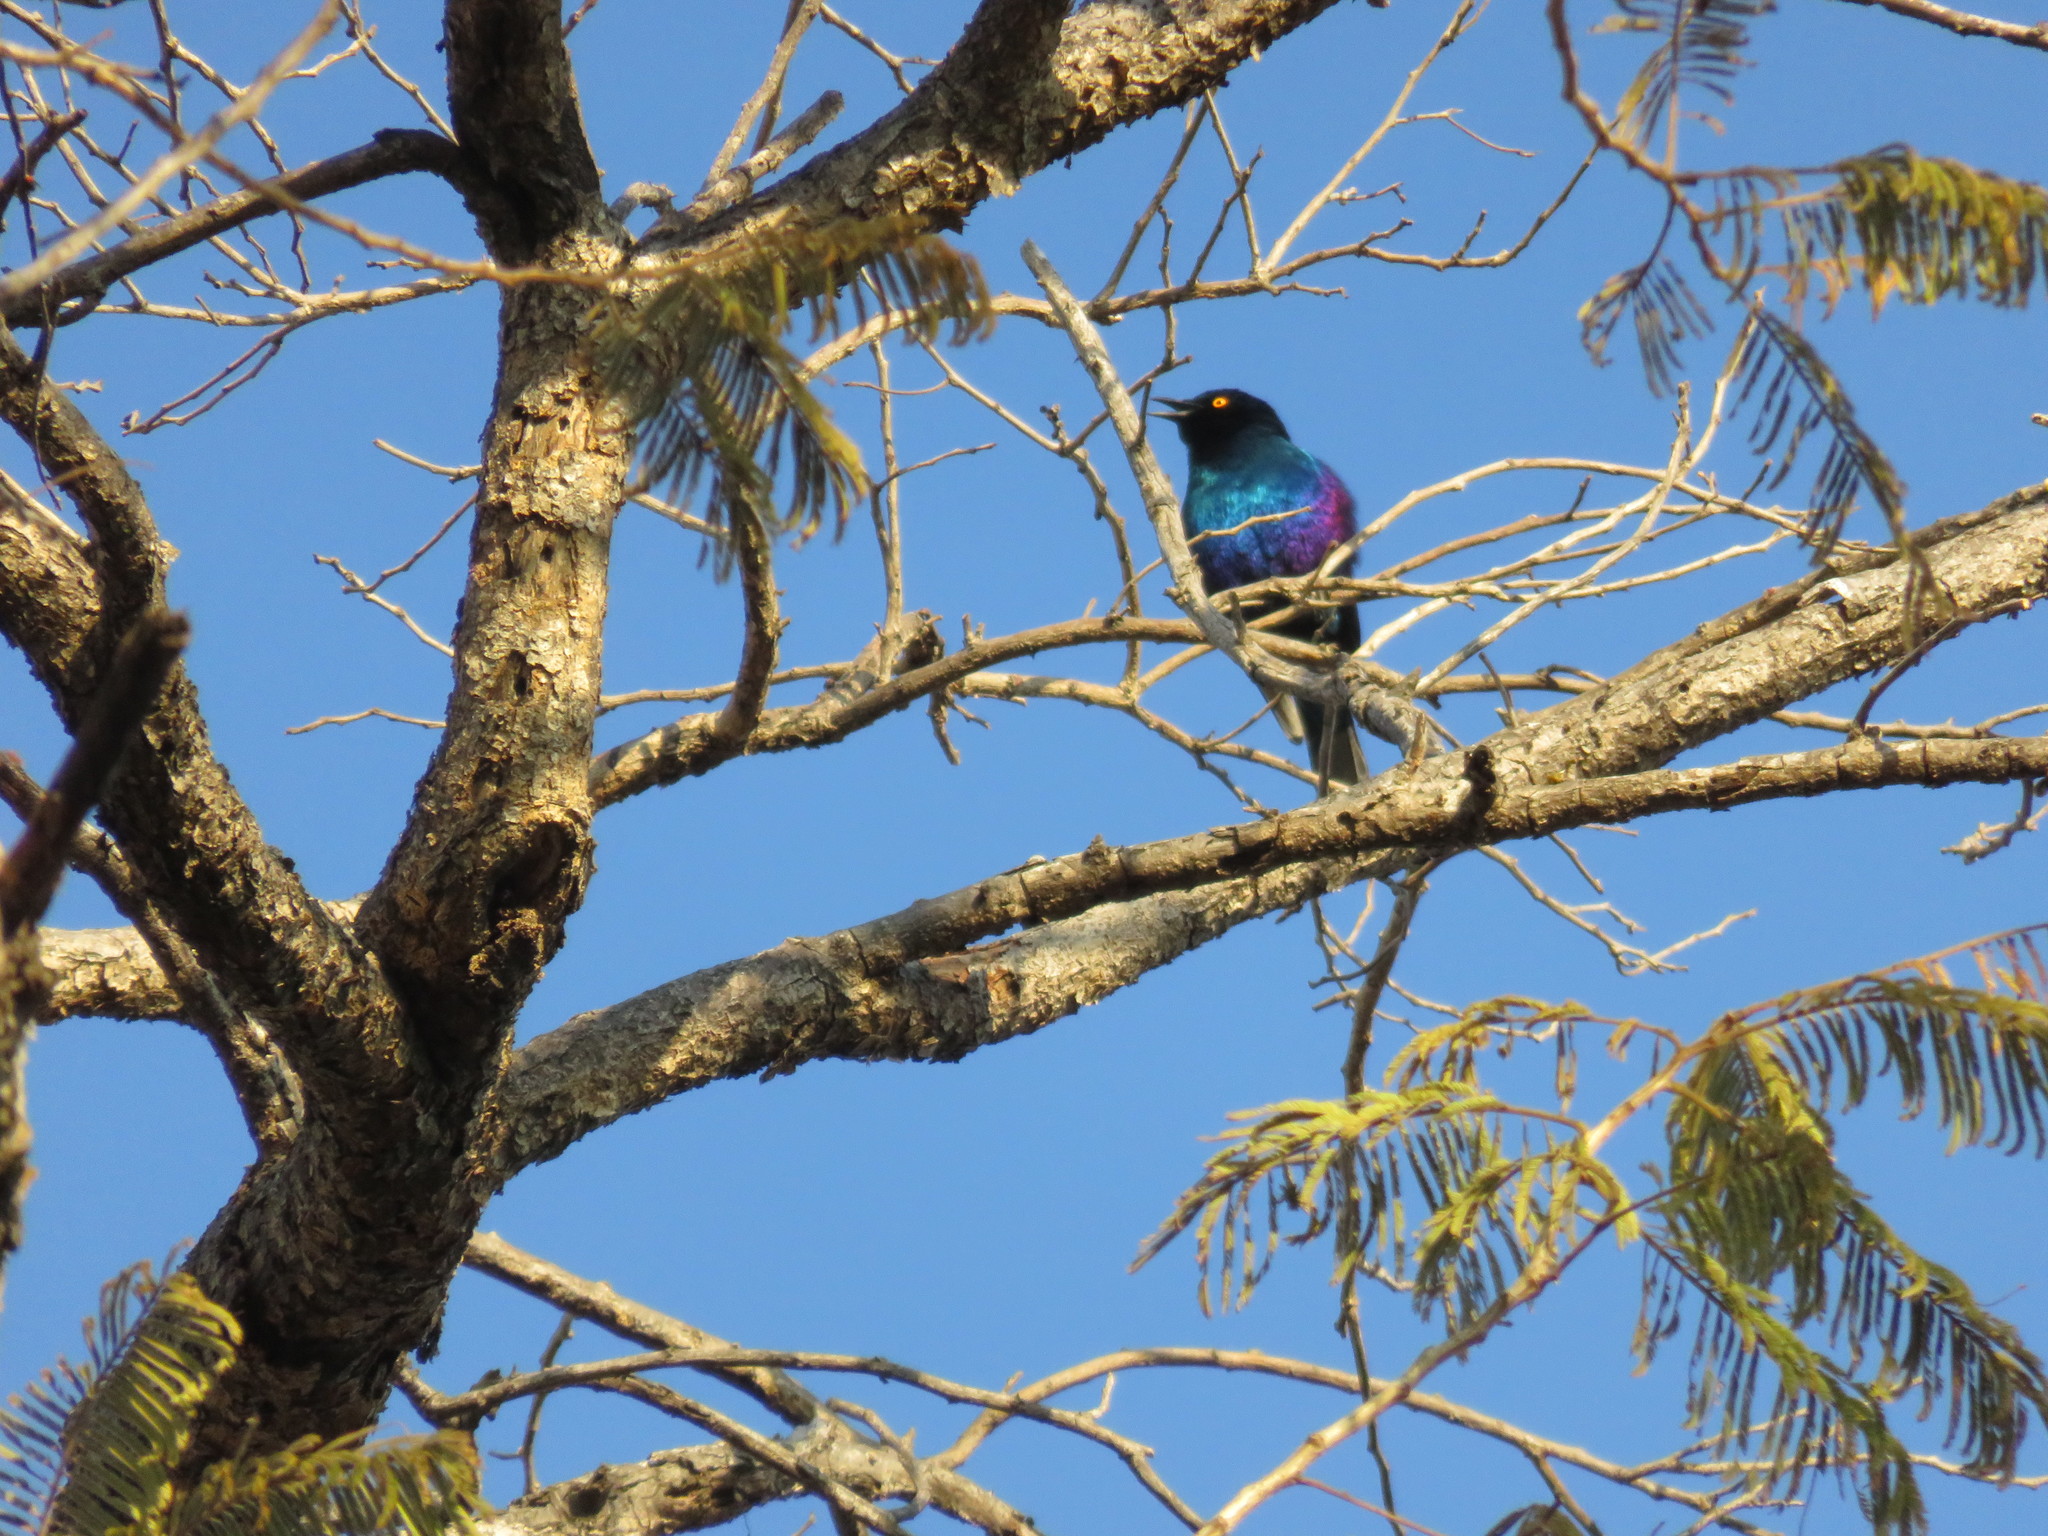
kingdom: Animalia
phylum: Chordata
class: Aves
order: Passeriformes
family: Sturnidae
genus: Lamprotornis
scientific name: Lamprotornis chalybaeus
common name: Greater blue-eared starling
